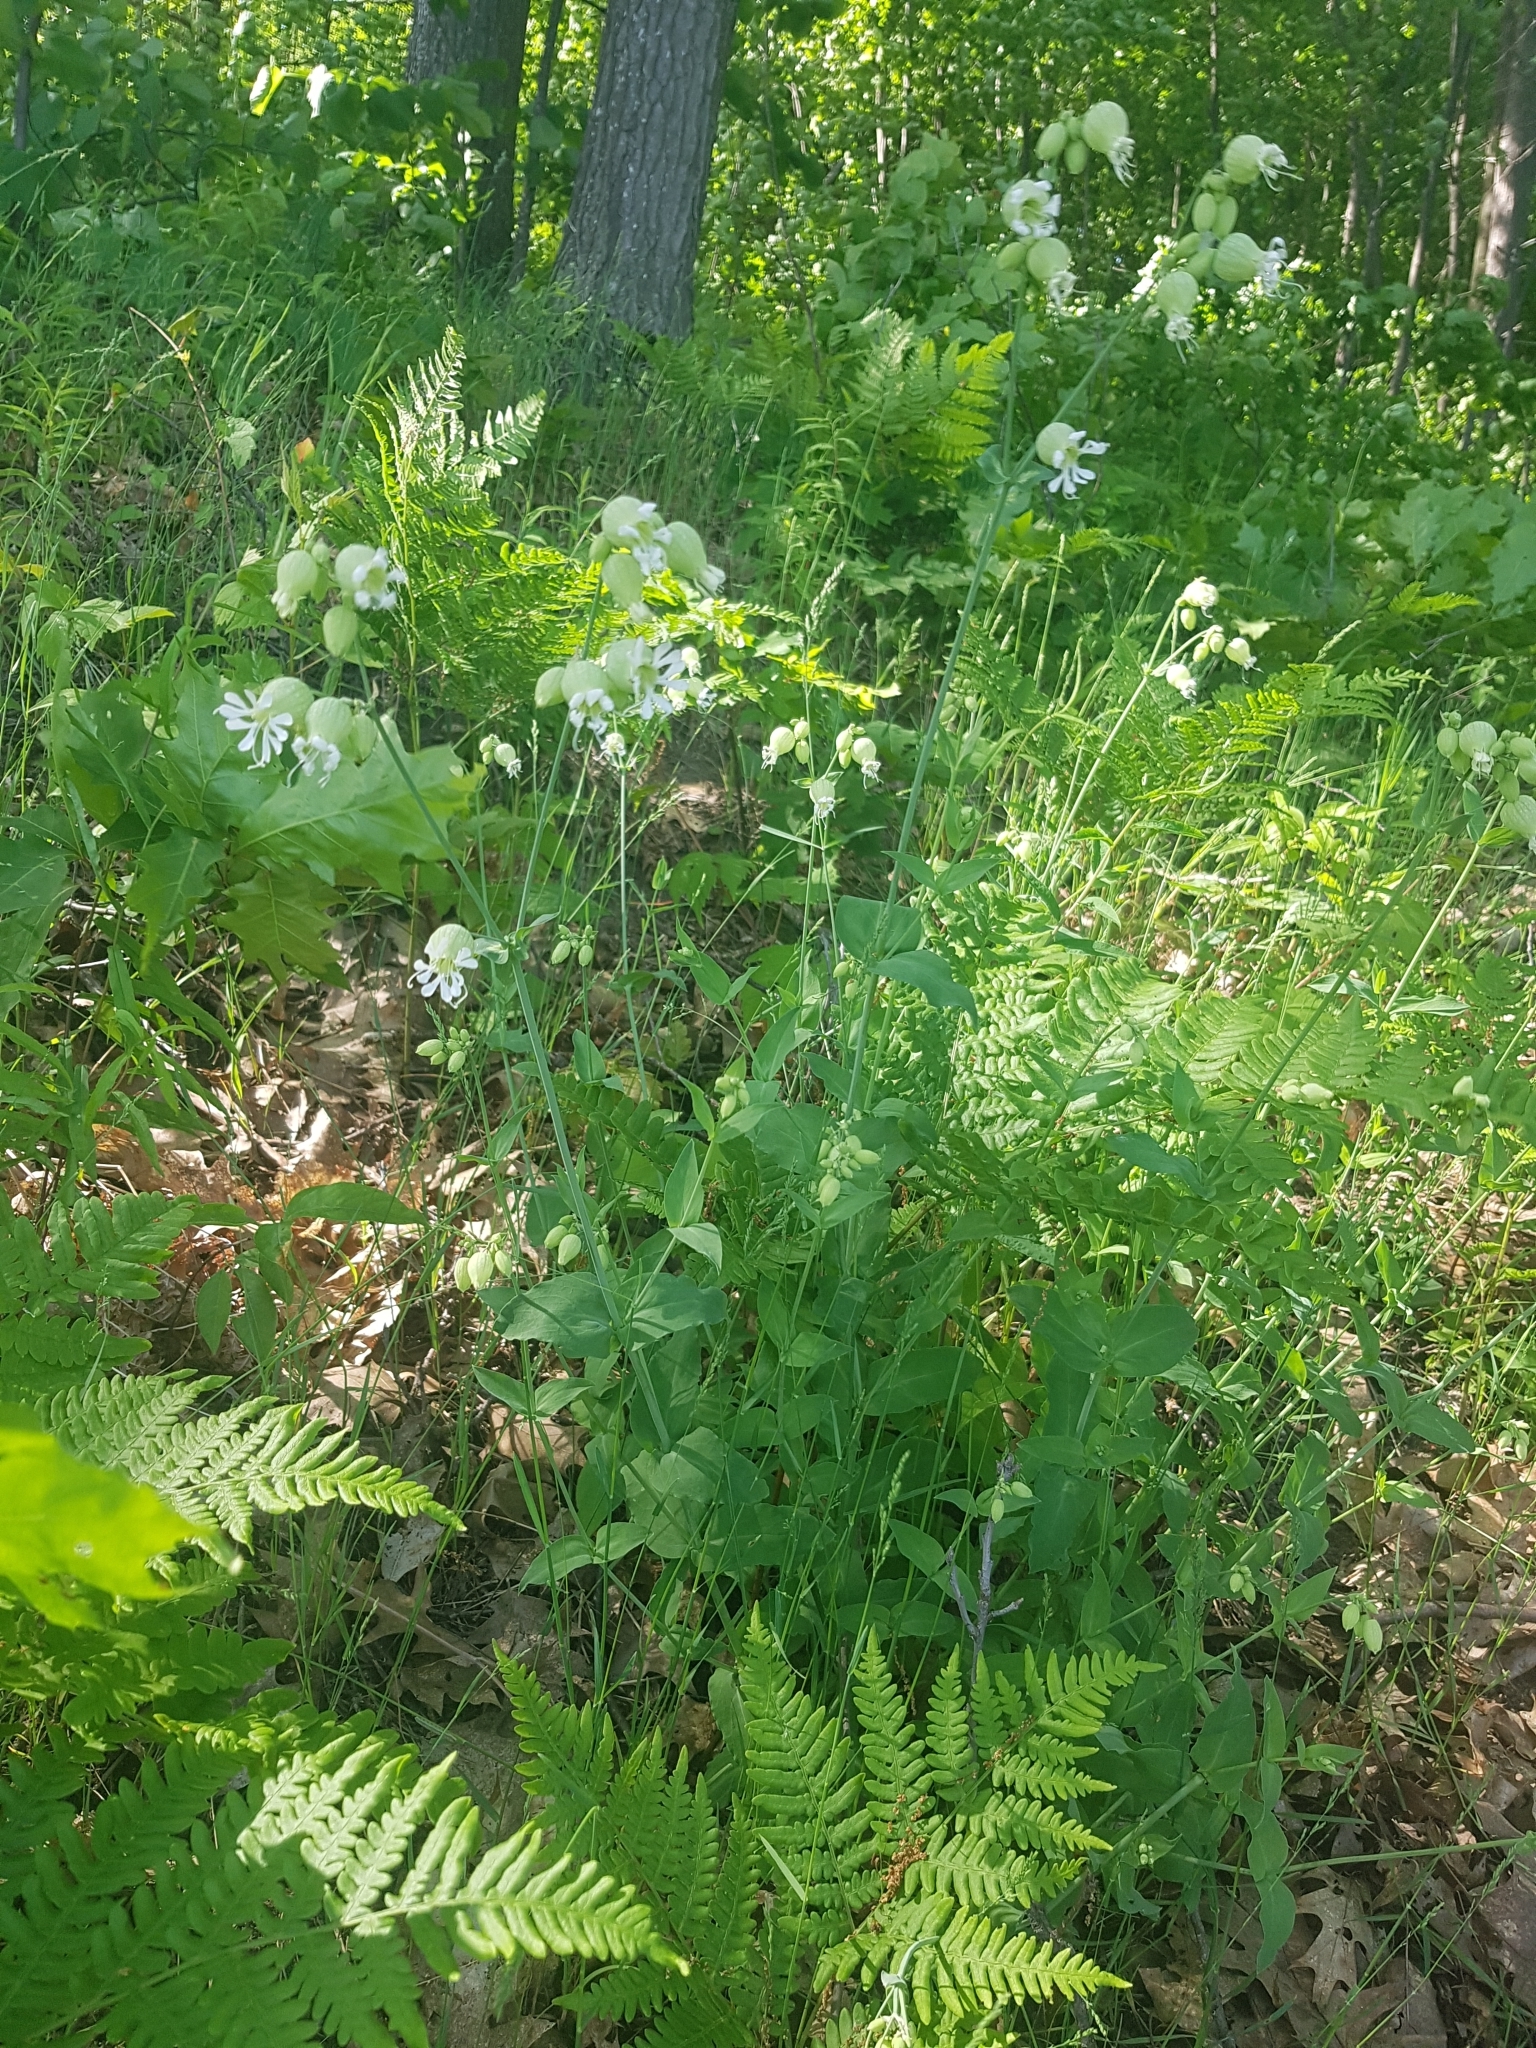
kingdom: Plantae
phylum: Tracheophyta
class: Magnoliopsida
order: Caryophyllales
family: Caryophyllaceae
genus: Silene
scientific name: Silene vulgaris
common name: Bladder campion
